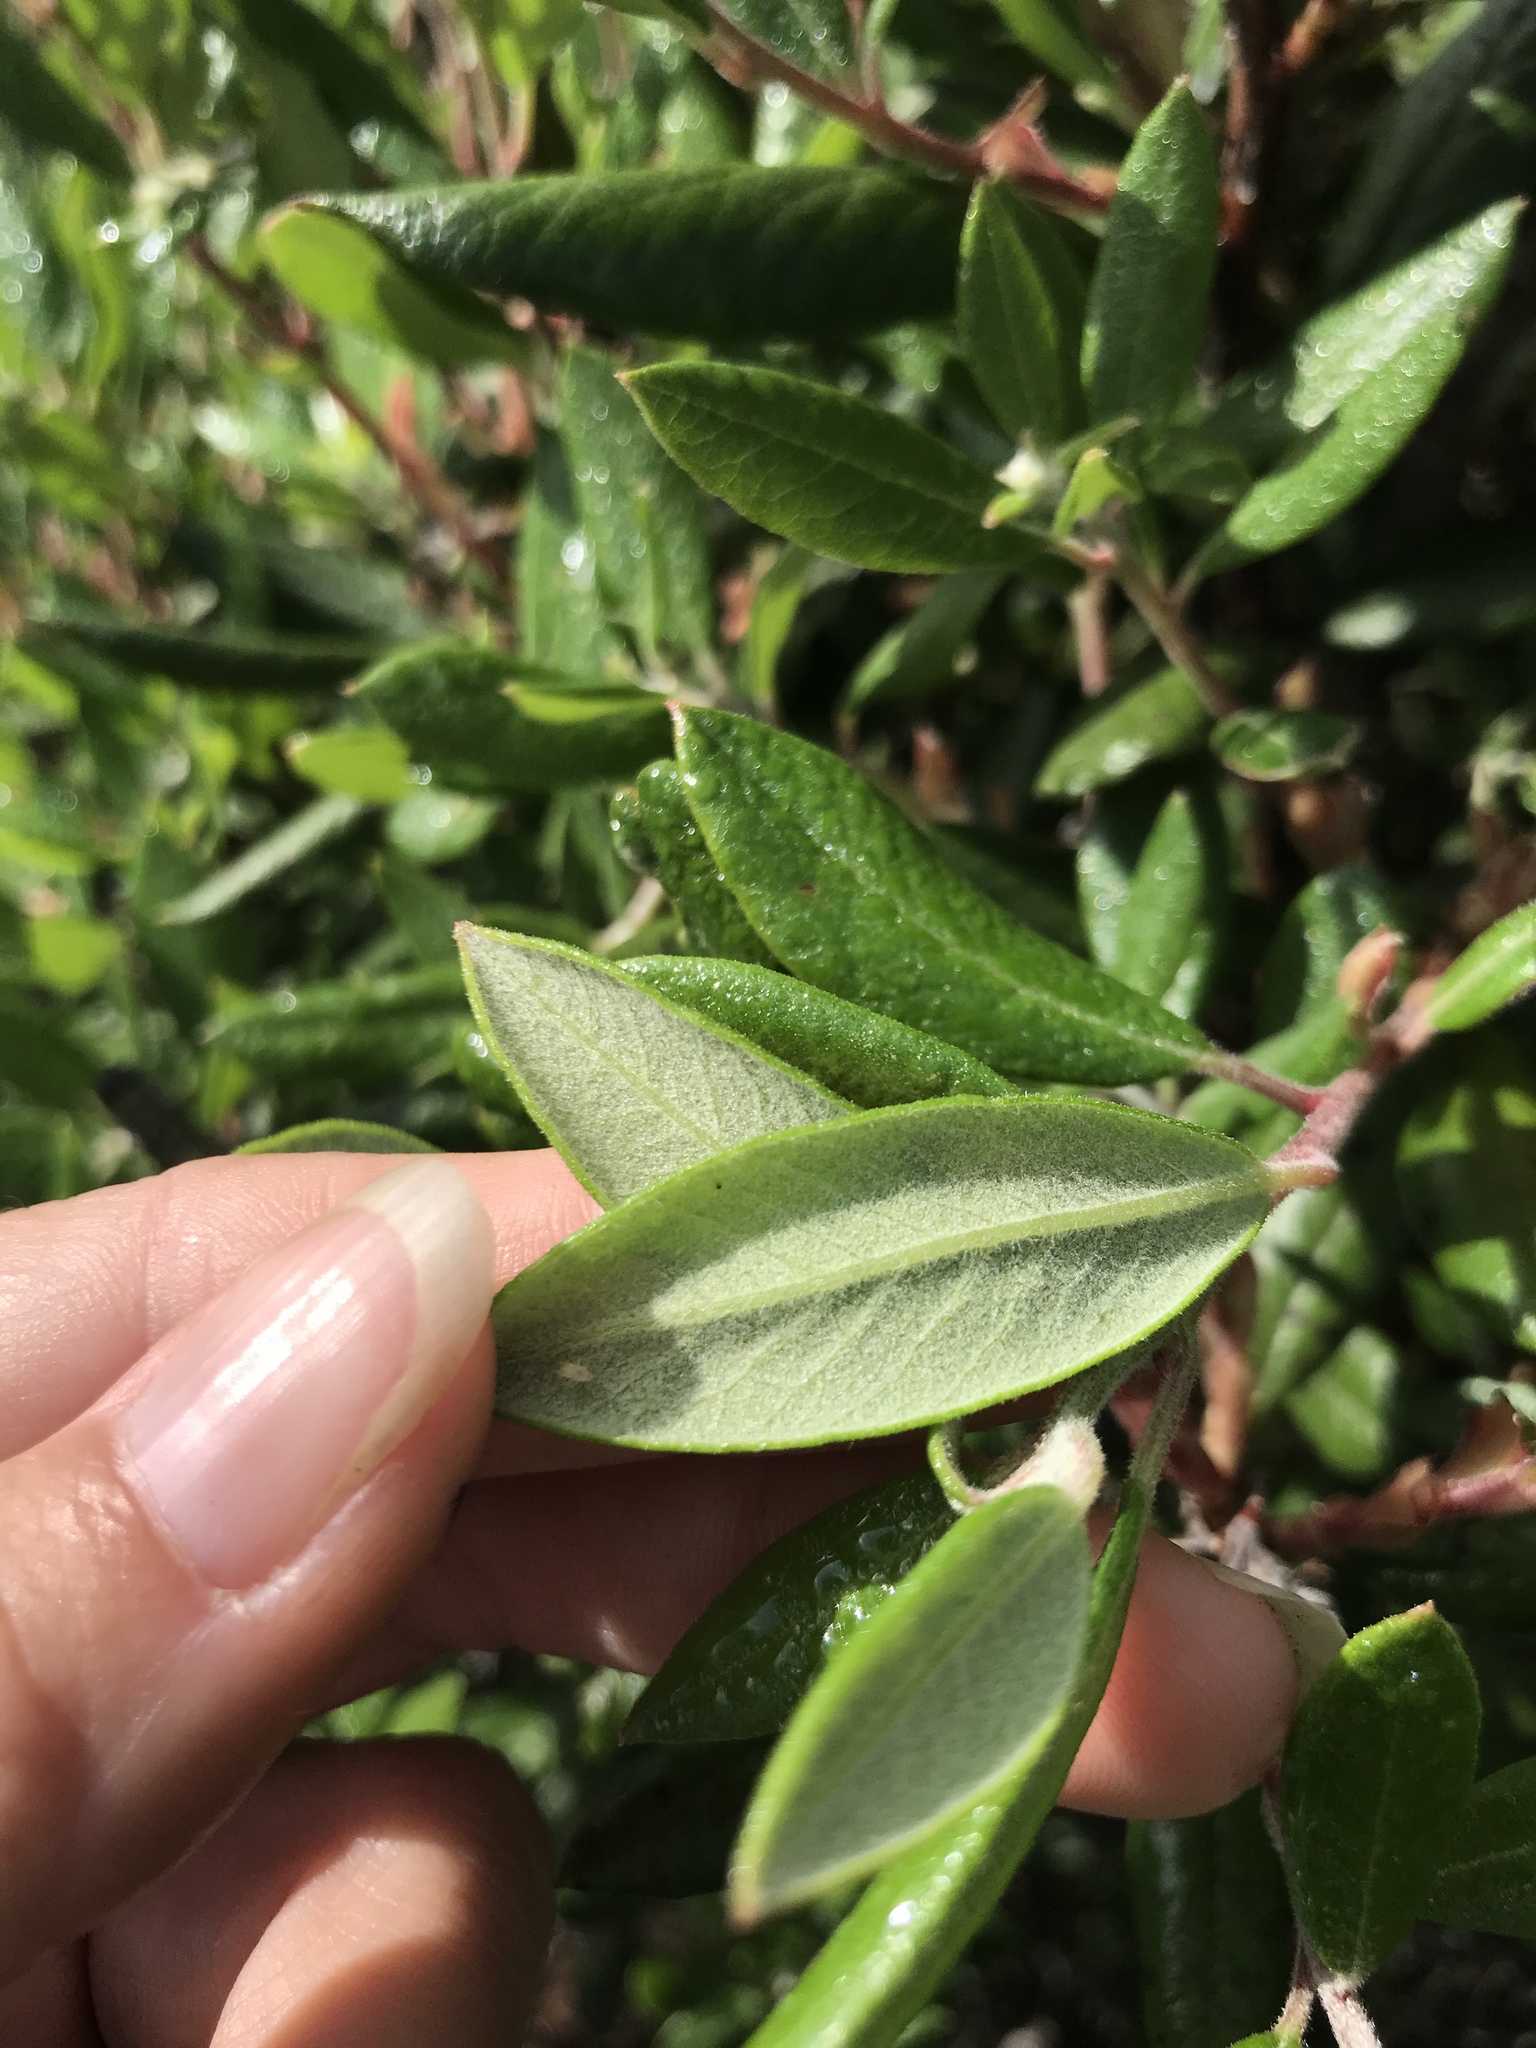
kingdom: Plantae
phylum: Tracheophyta
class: Magnoliopsida
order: Ericales
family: Ericaceae
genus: Arctostaphylos
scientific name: Arctostaphylos bicolor
